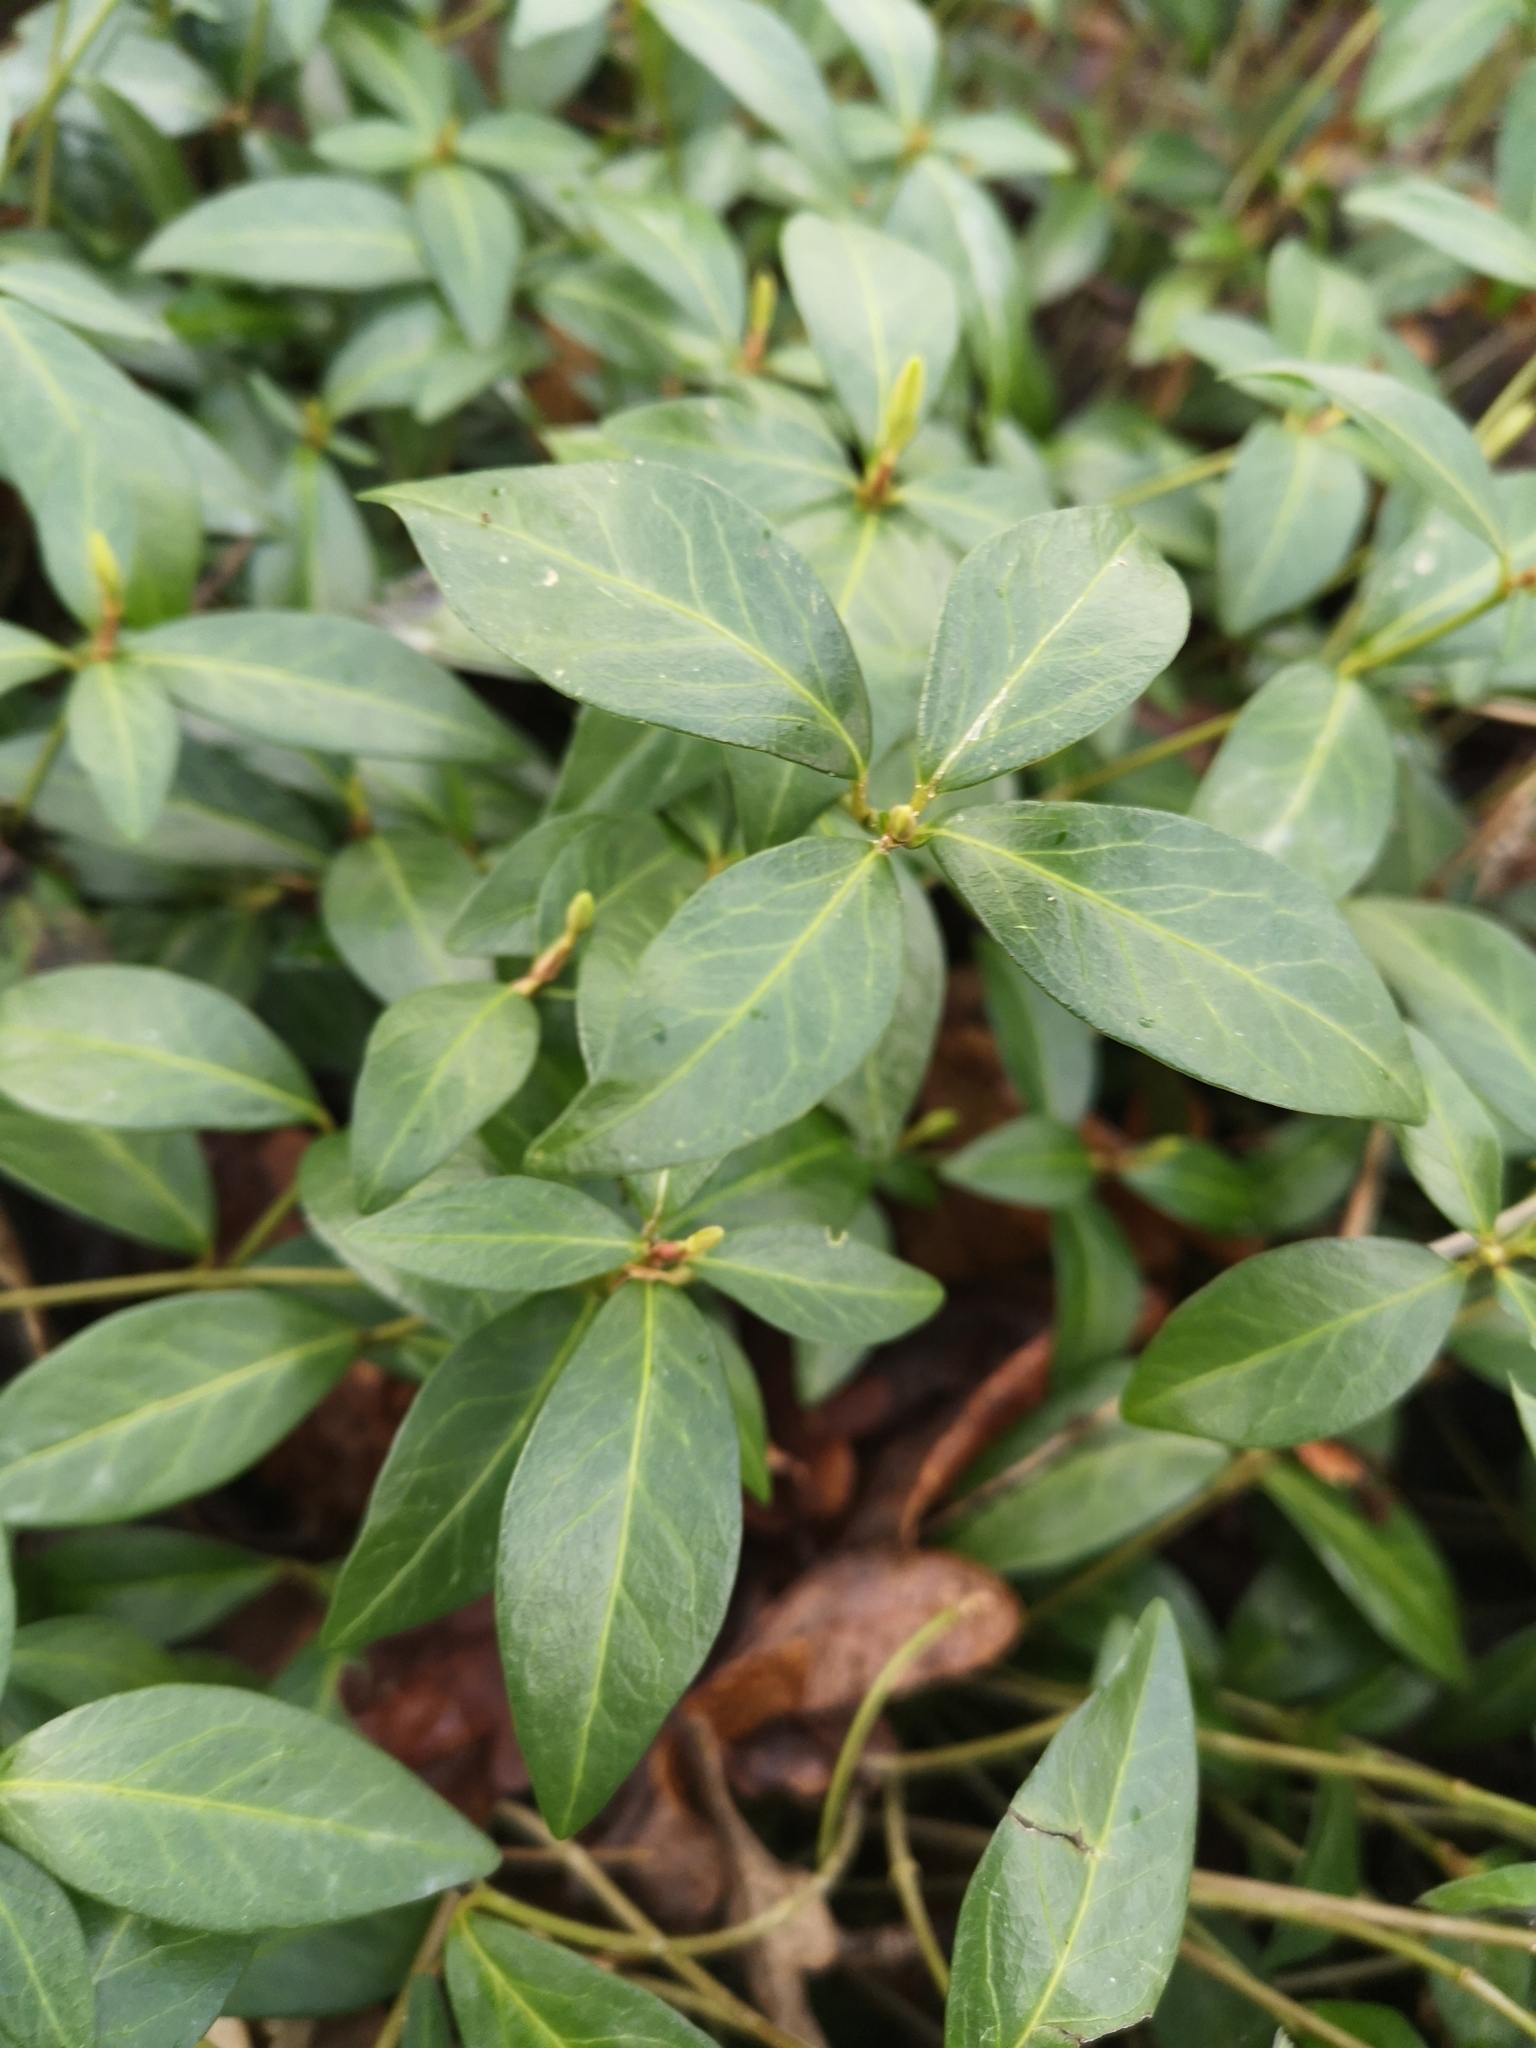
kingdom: Plantae
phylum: Tracheophyta
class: Magnoliopsida
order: Gentianales
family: Apocynaceae
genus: Vinca
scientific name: Vinca minor
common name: Lesser periwinkle
